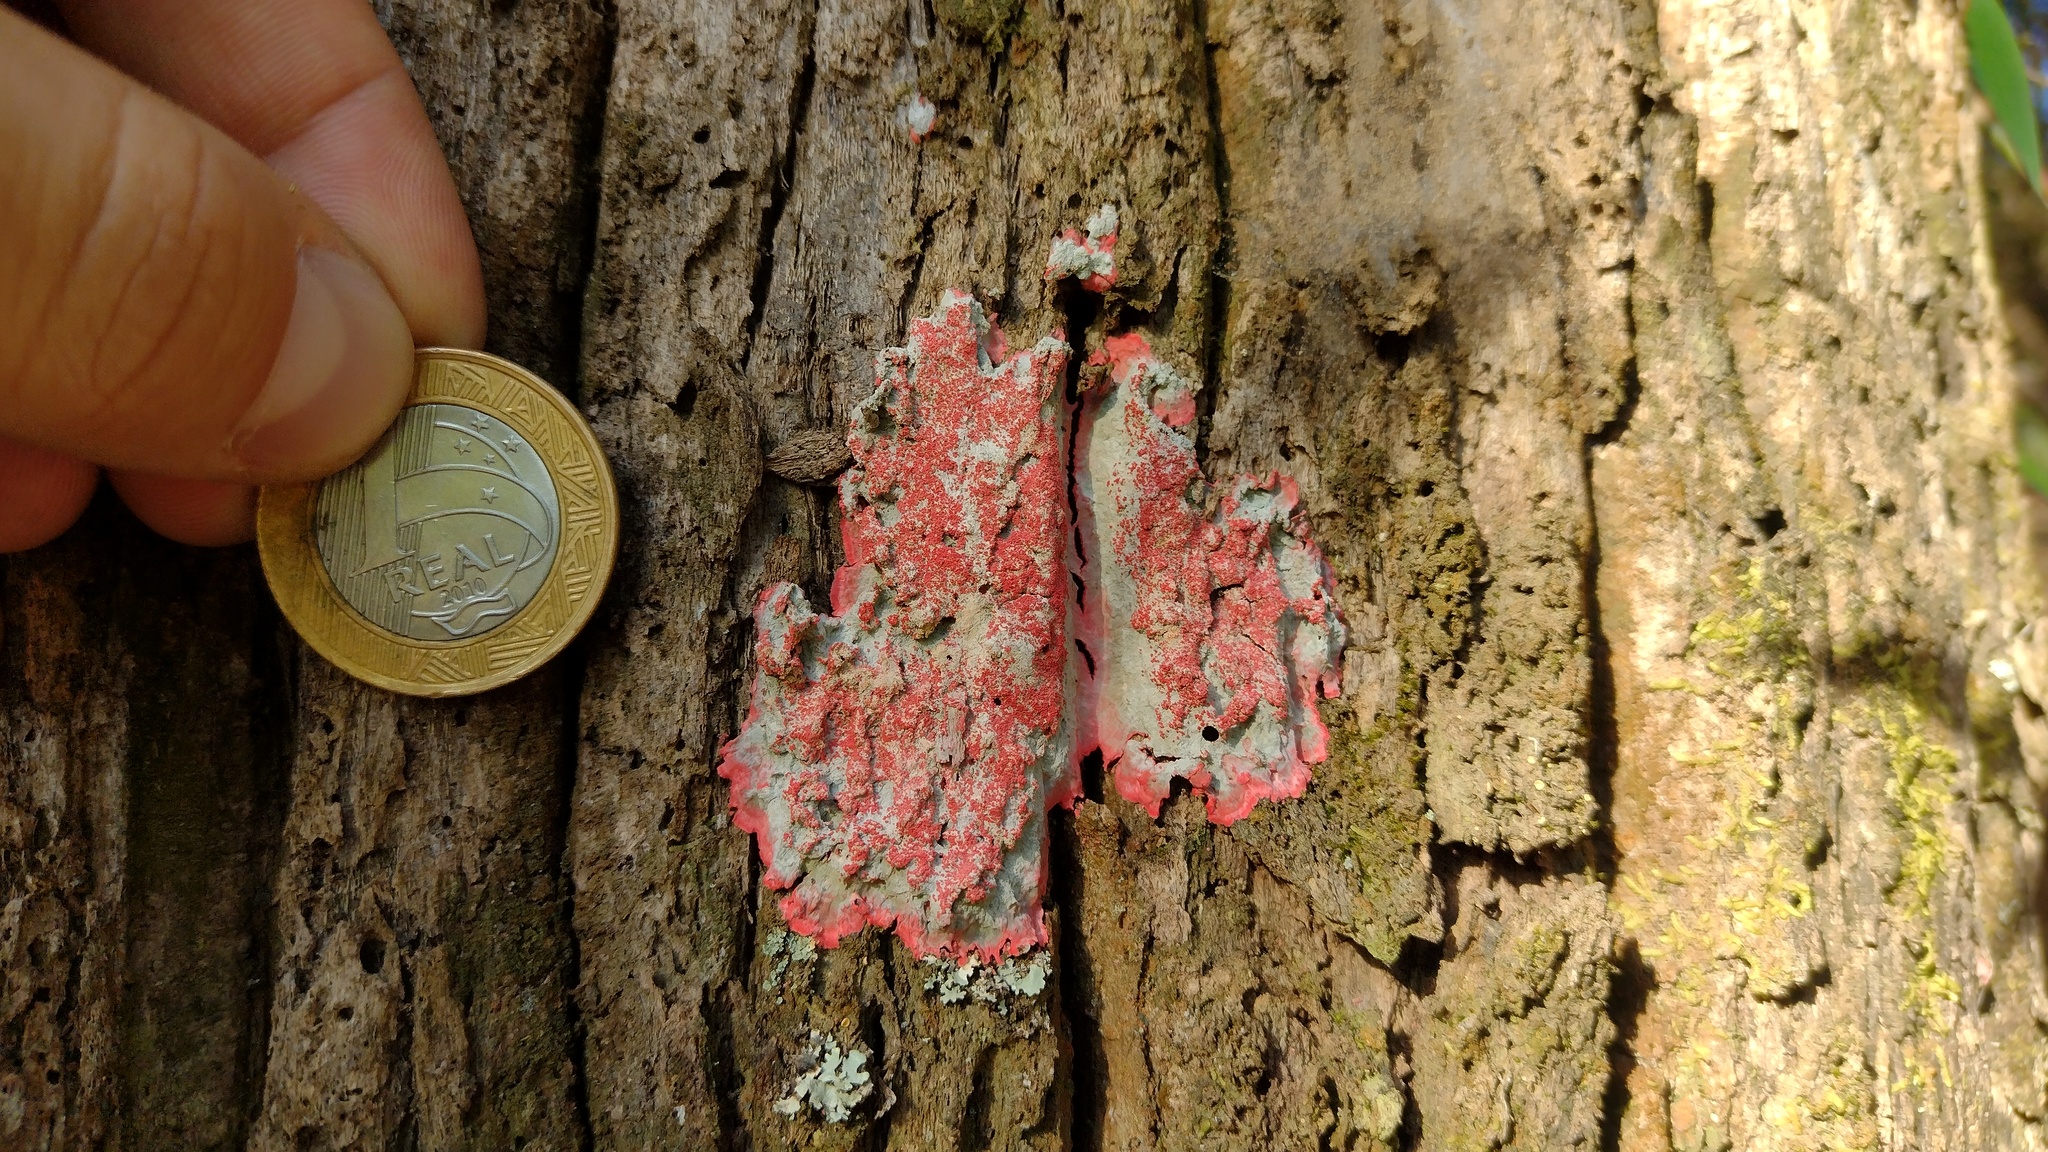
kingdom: Fungi
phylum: Ascomycota
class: Arthoniomycetes
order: Arthoniales
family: Arthoniaceae
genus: Herpothallon
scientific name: Herpothallon rubrocinctum
